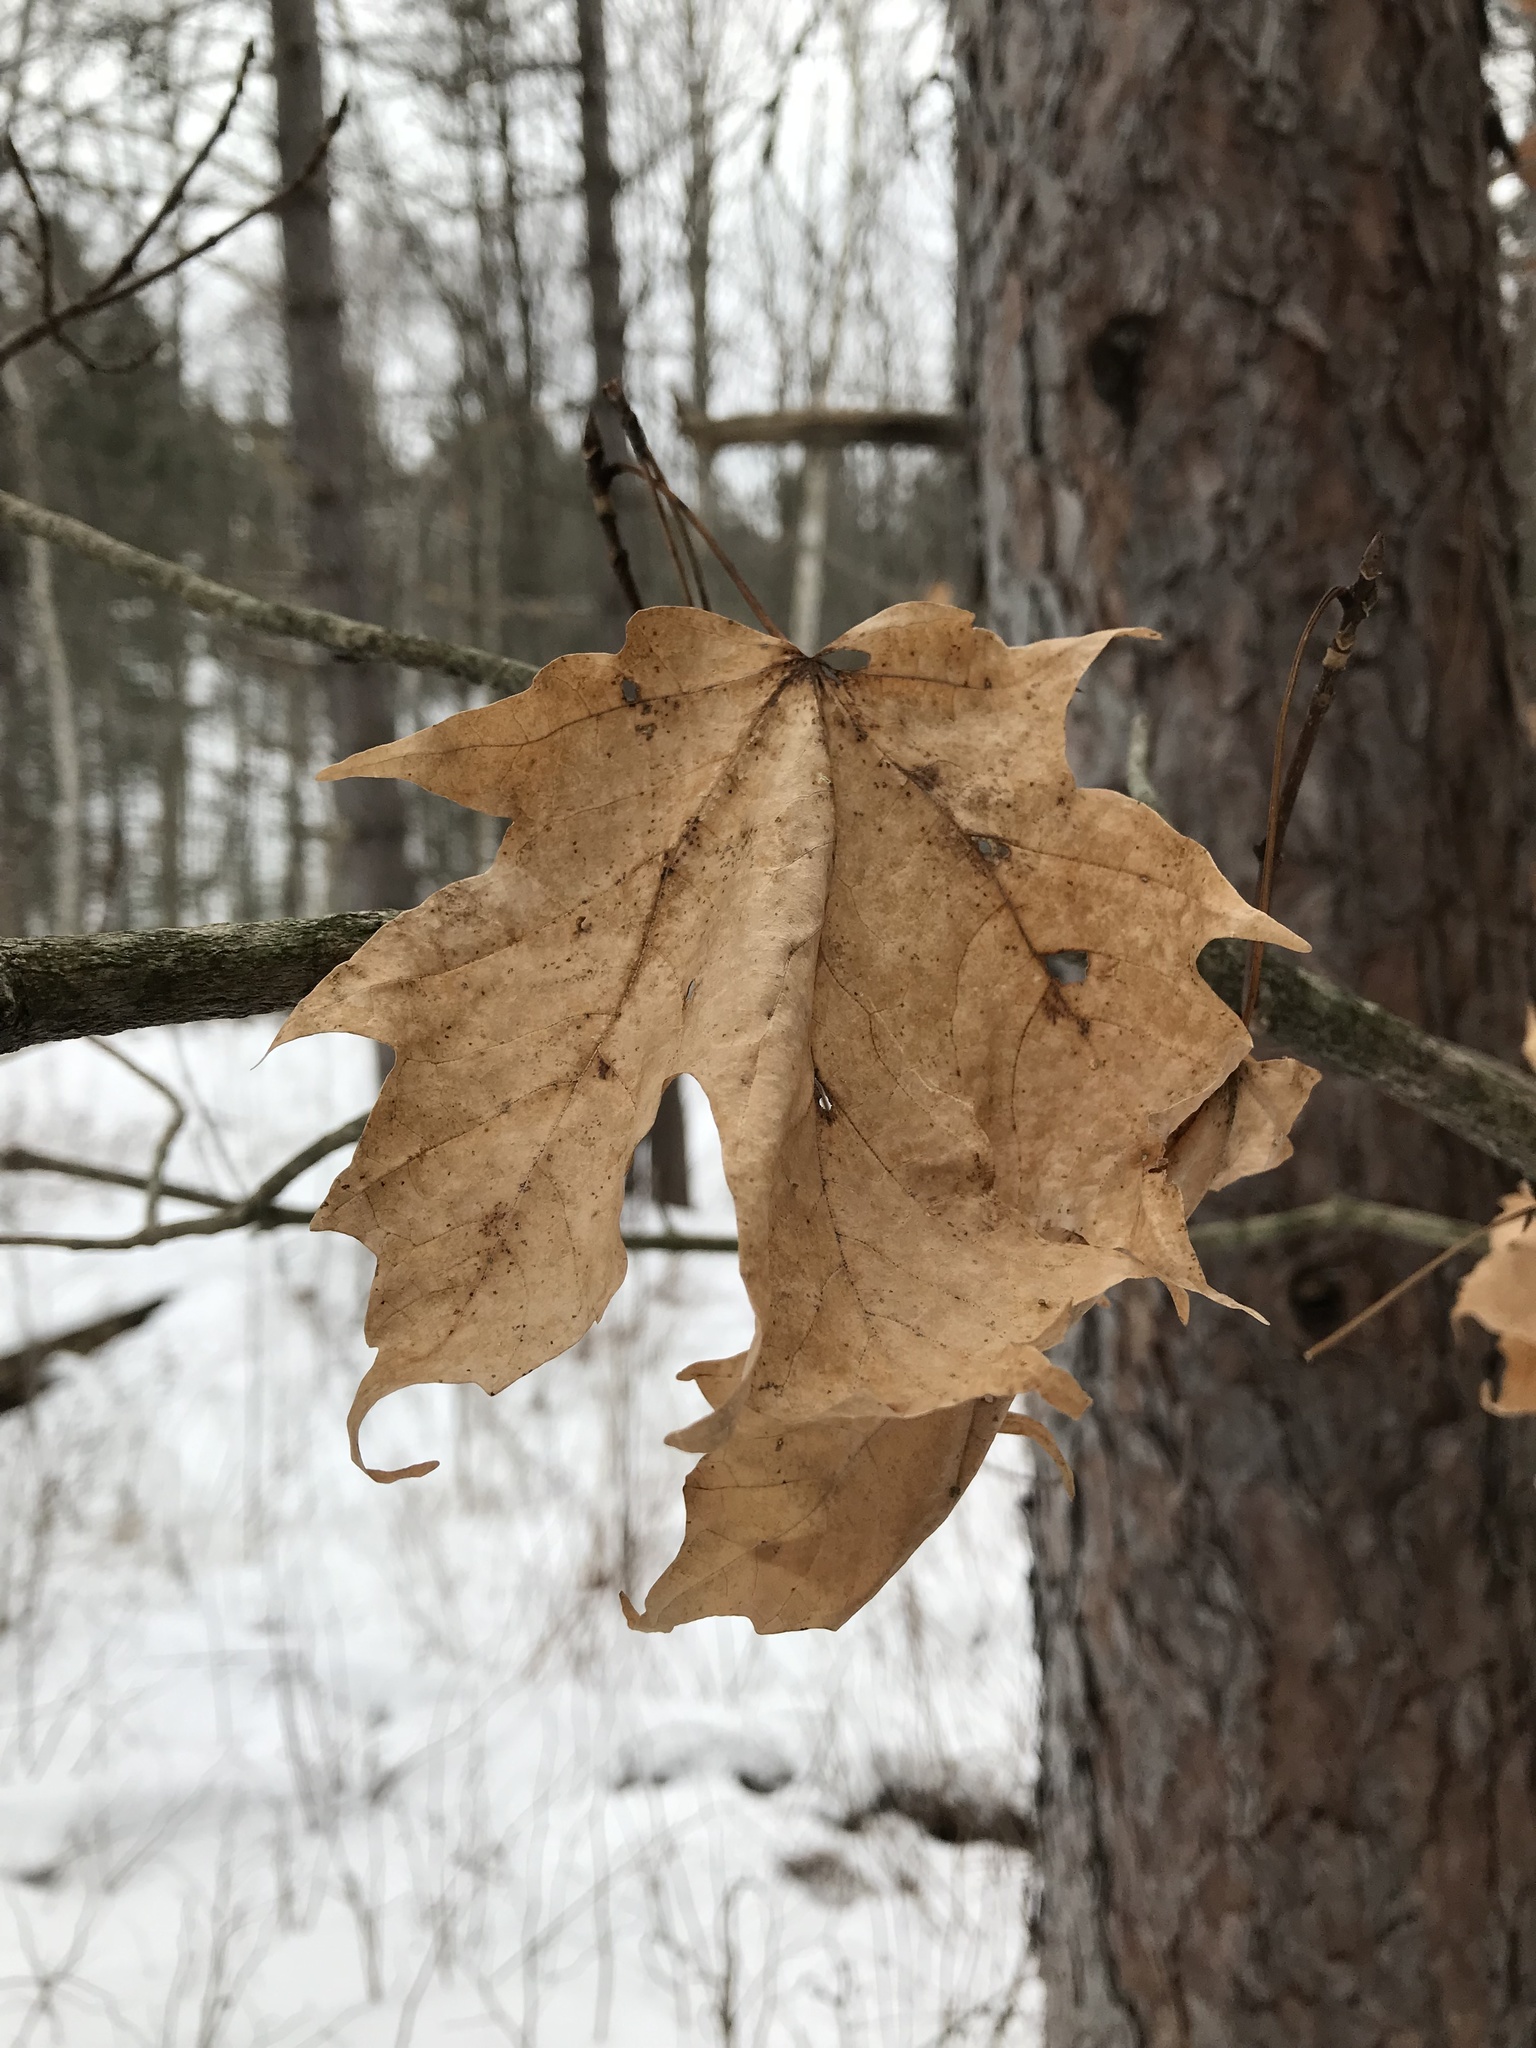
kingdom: Plantae
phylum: Tracheophyta
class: Magnoliopsida
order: Sapindales
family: Sapindaceae
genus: Acer
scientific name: Acer saccharum
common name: Sugar maple
